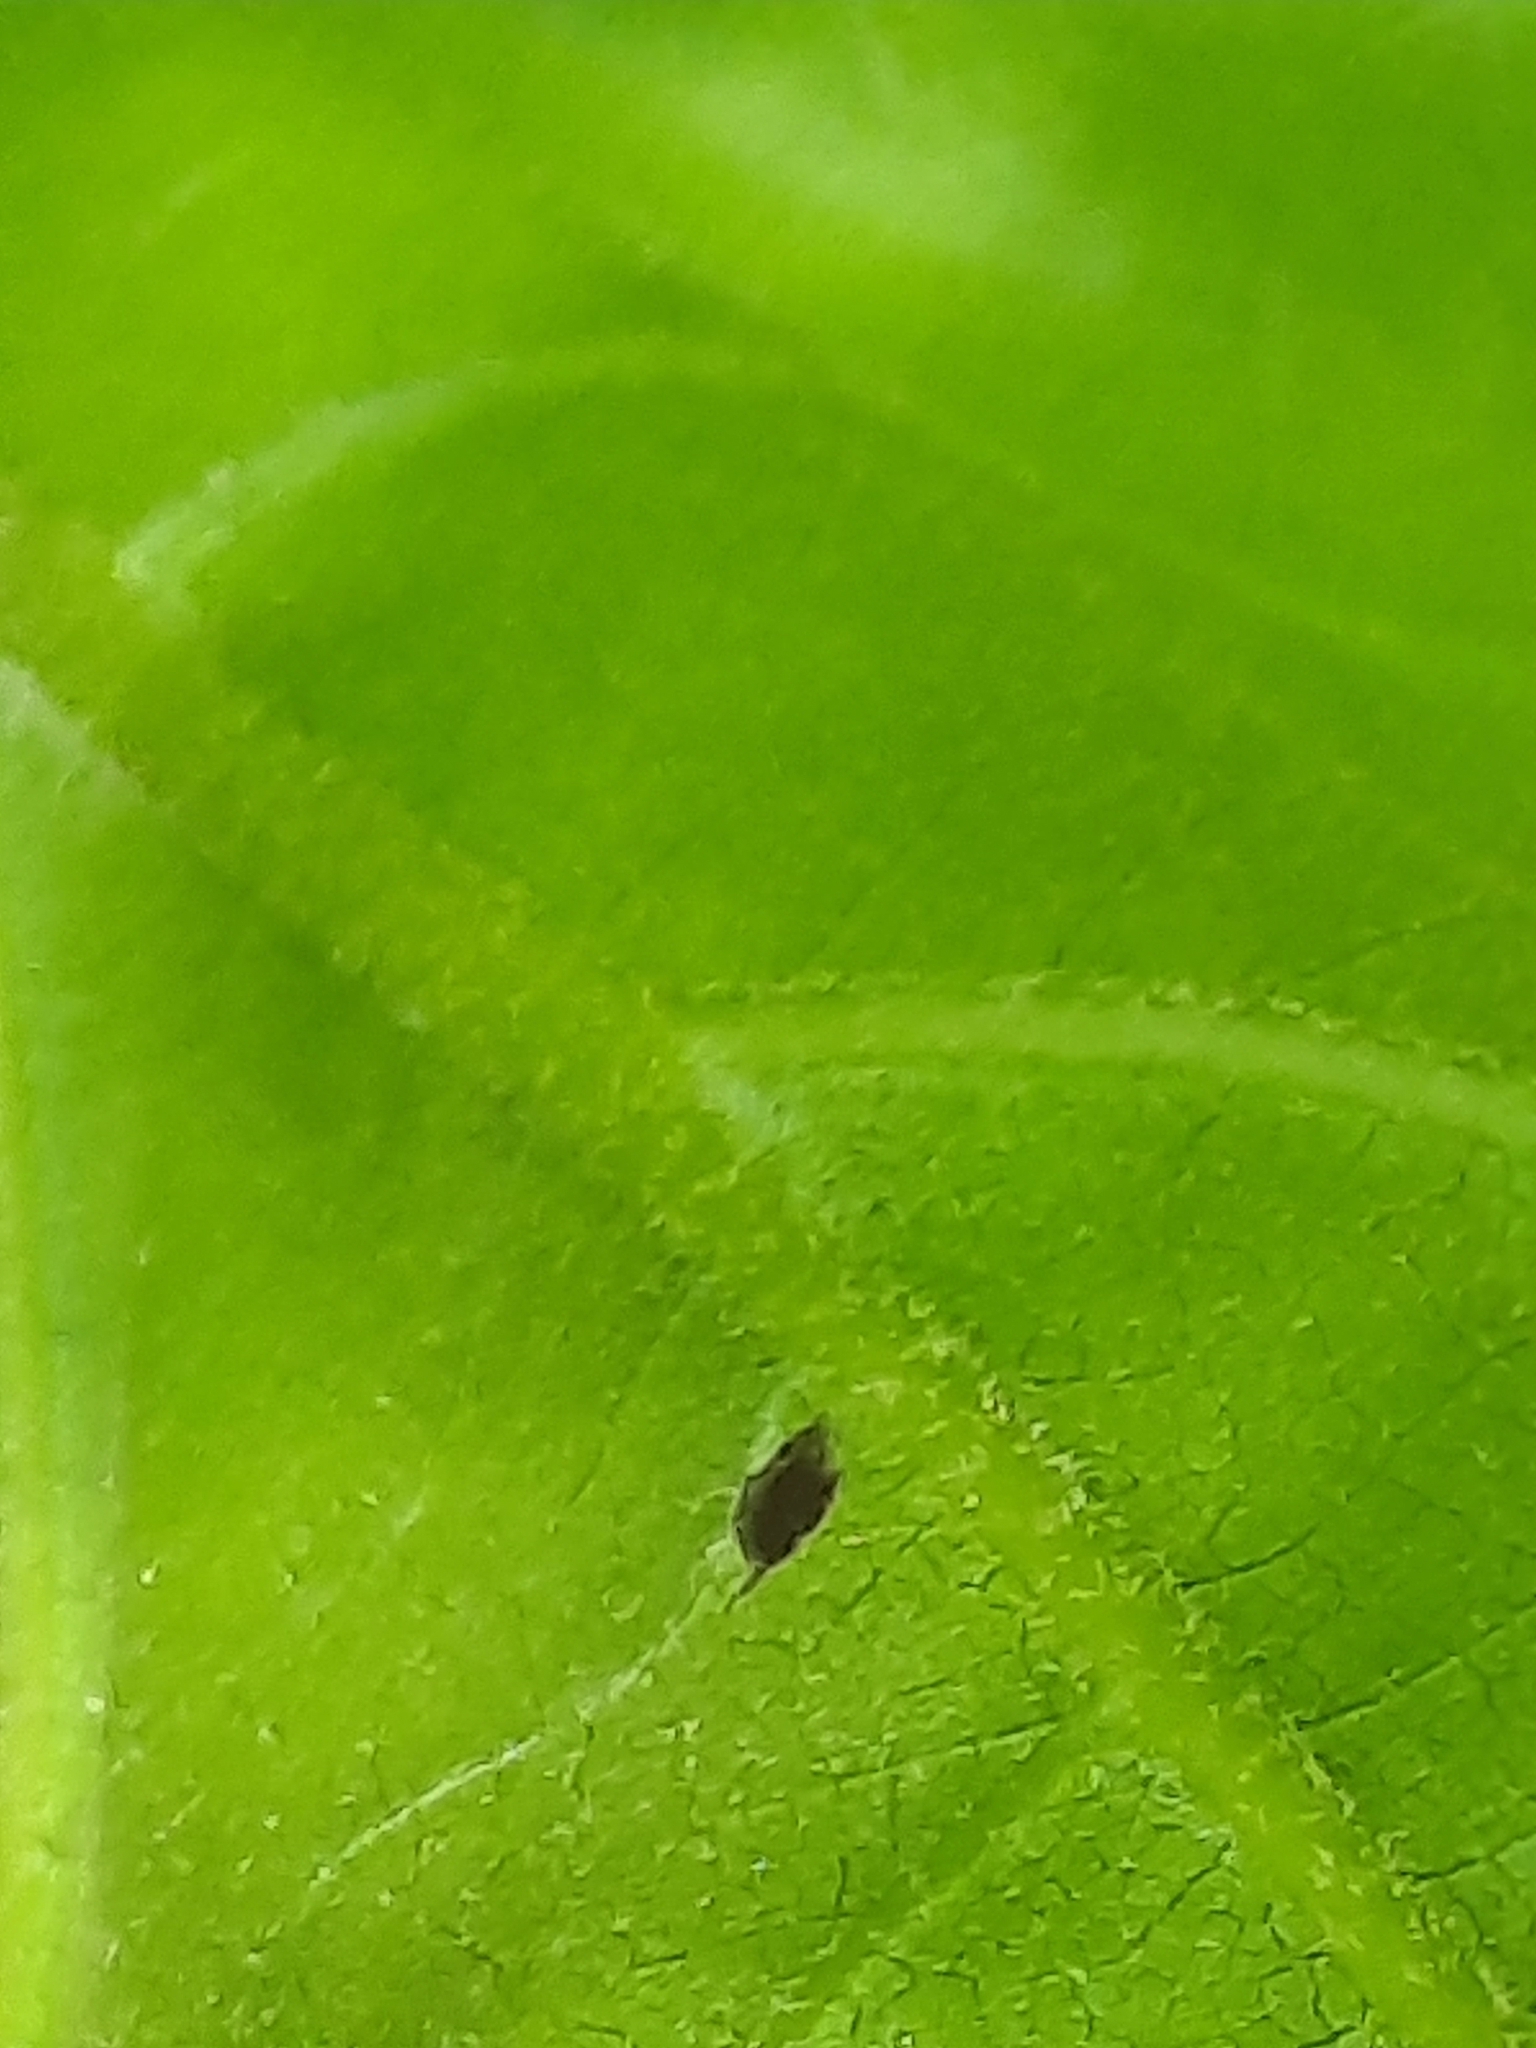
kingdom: Plantae
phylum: Tracheophyta
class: Magnoliopsida
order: Fagales
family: Fagaceae
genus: Quercus
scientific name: Quercus velutina
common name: Black oak
